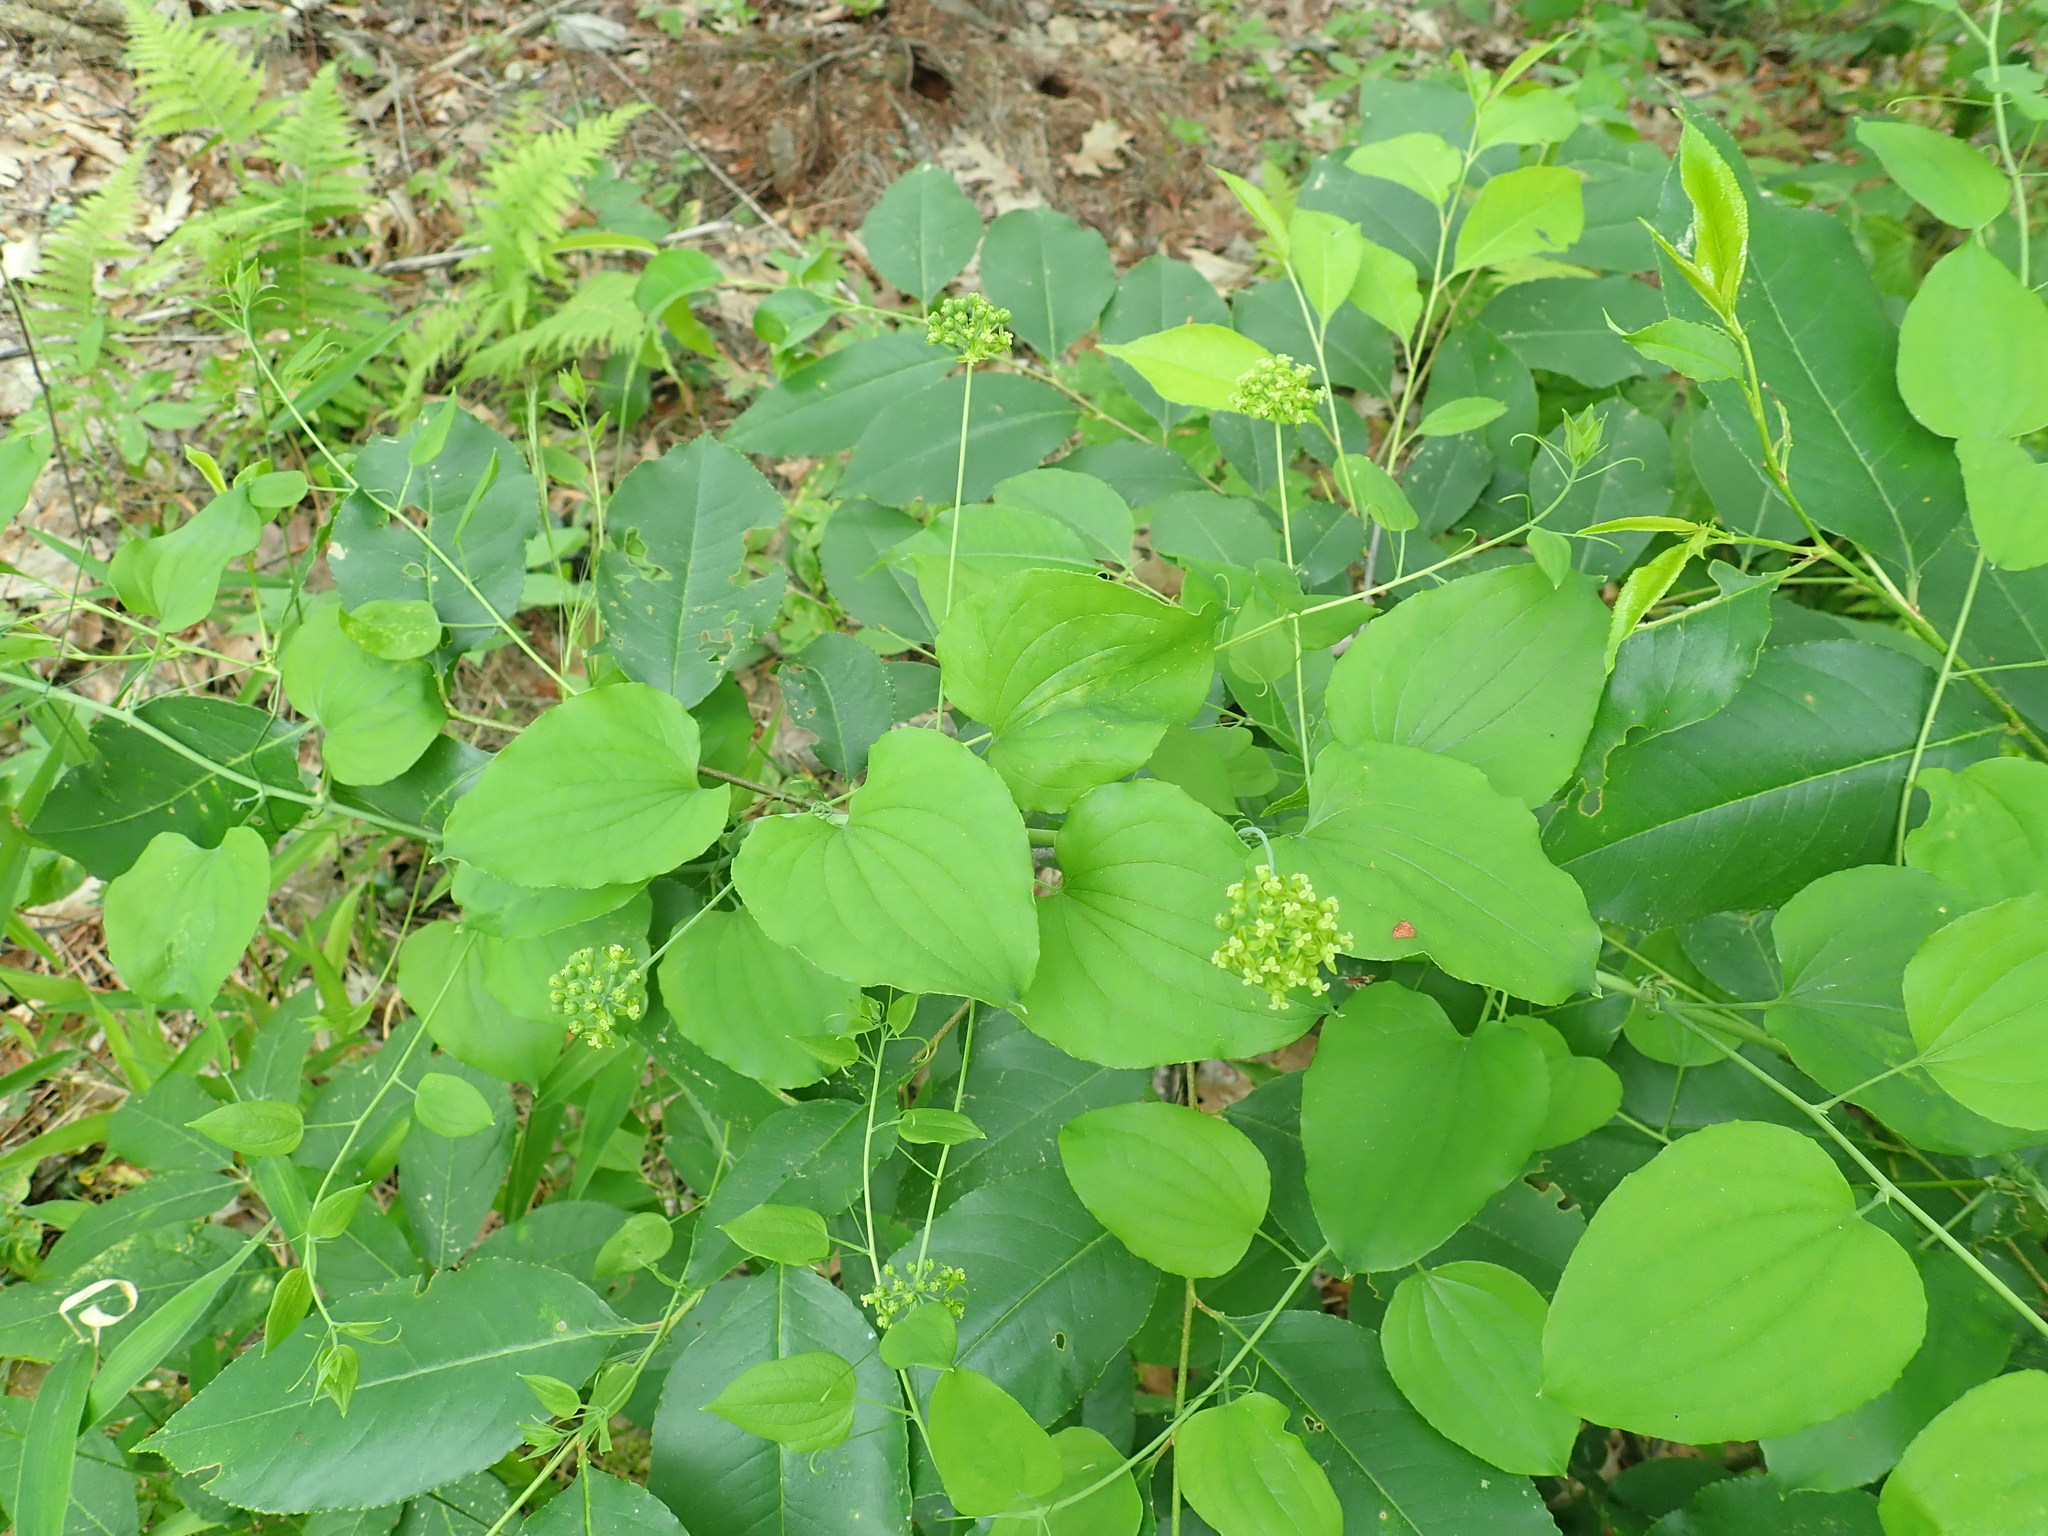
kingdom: Plantae
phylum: Tracheophyta
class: Liliopsida
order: Liliales
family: Smilacaceae
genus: Smilax
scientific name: Smilax herbacea
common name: Jacob's-ladder
